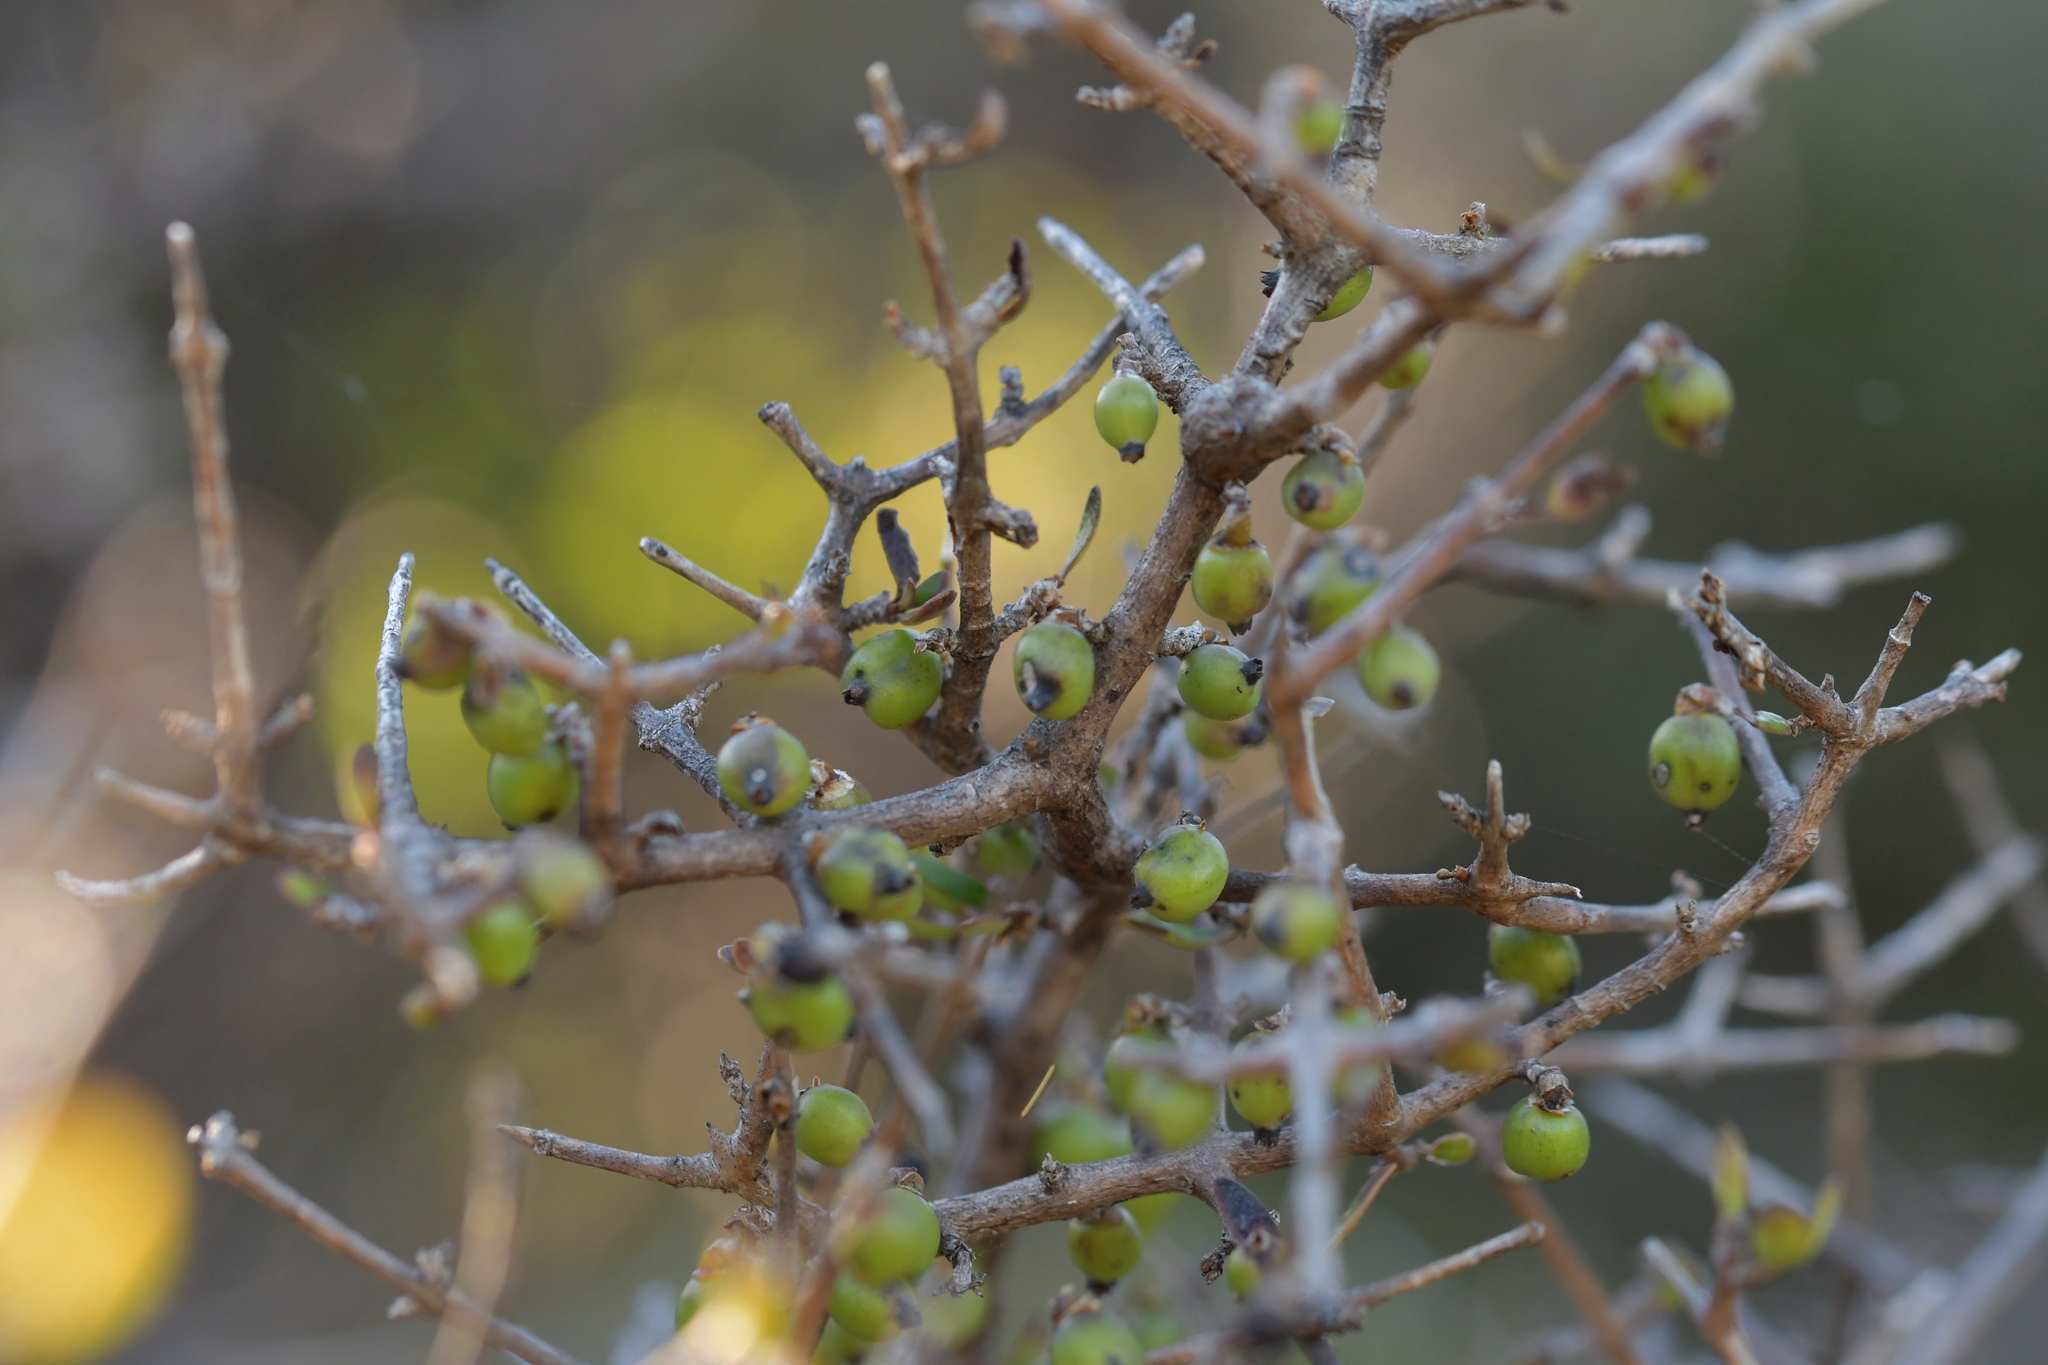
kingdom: Plantae
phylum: Tracheophyta
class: Magnoliopsida
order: Gentianales
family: Rubiaceae
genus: Coprosma
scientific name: Coprosma propinqua
